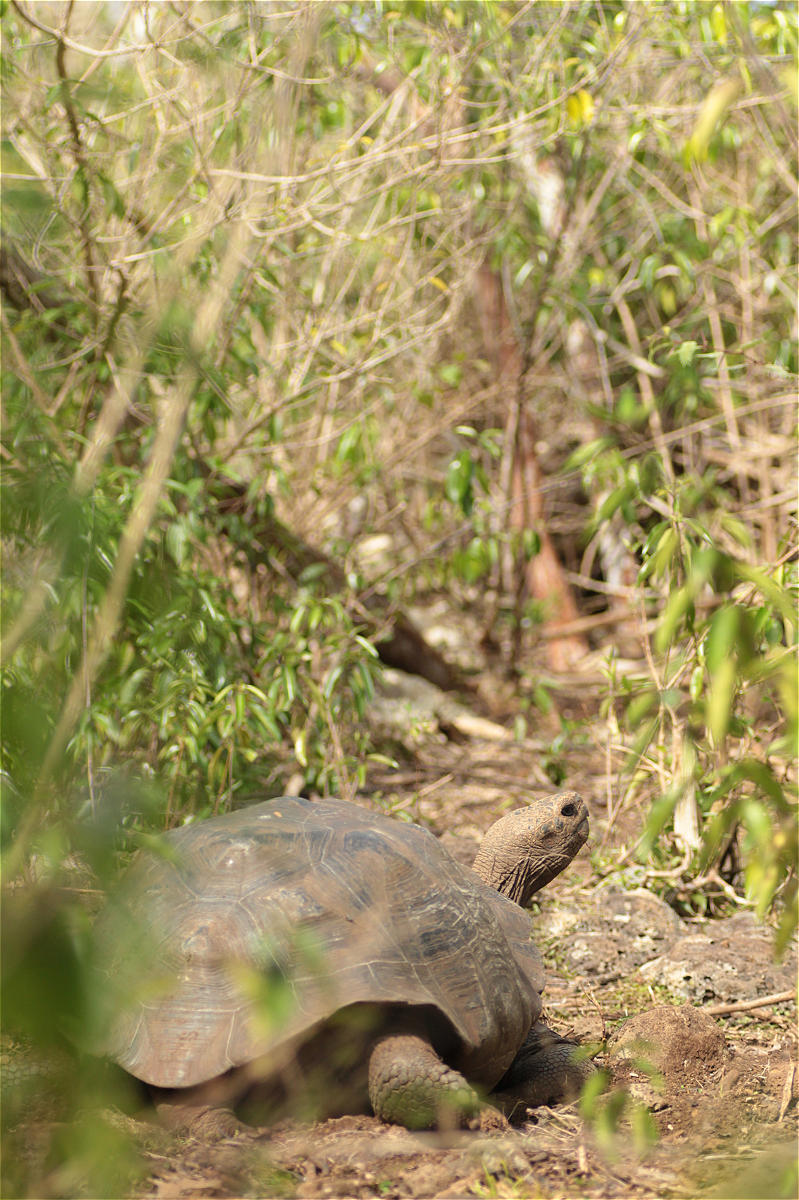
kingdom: Animalia
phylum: Chordata
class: Testudines
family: Testudinidae
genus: Chelonoidis
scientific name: Chelonoidis chathamensis
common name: Chatham island giant tortoise
